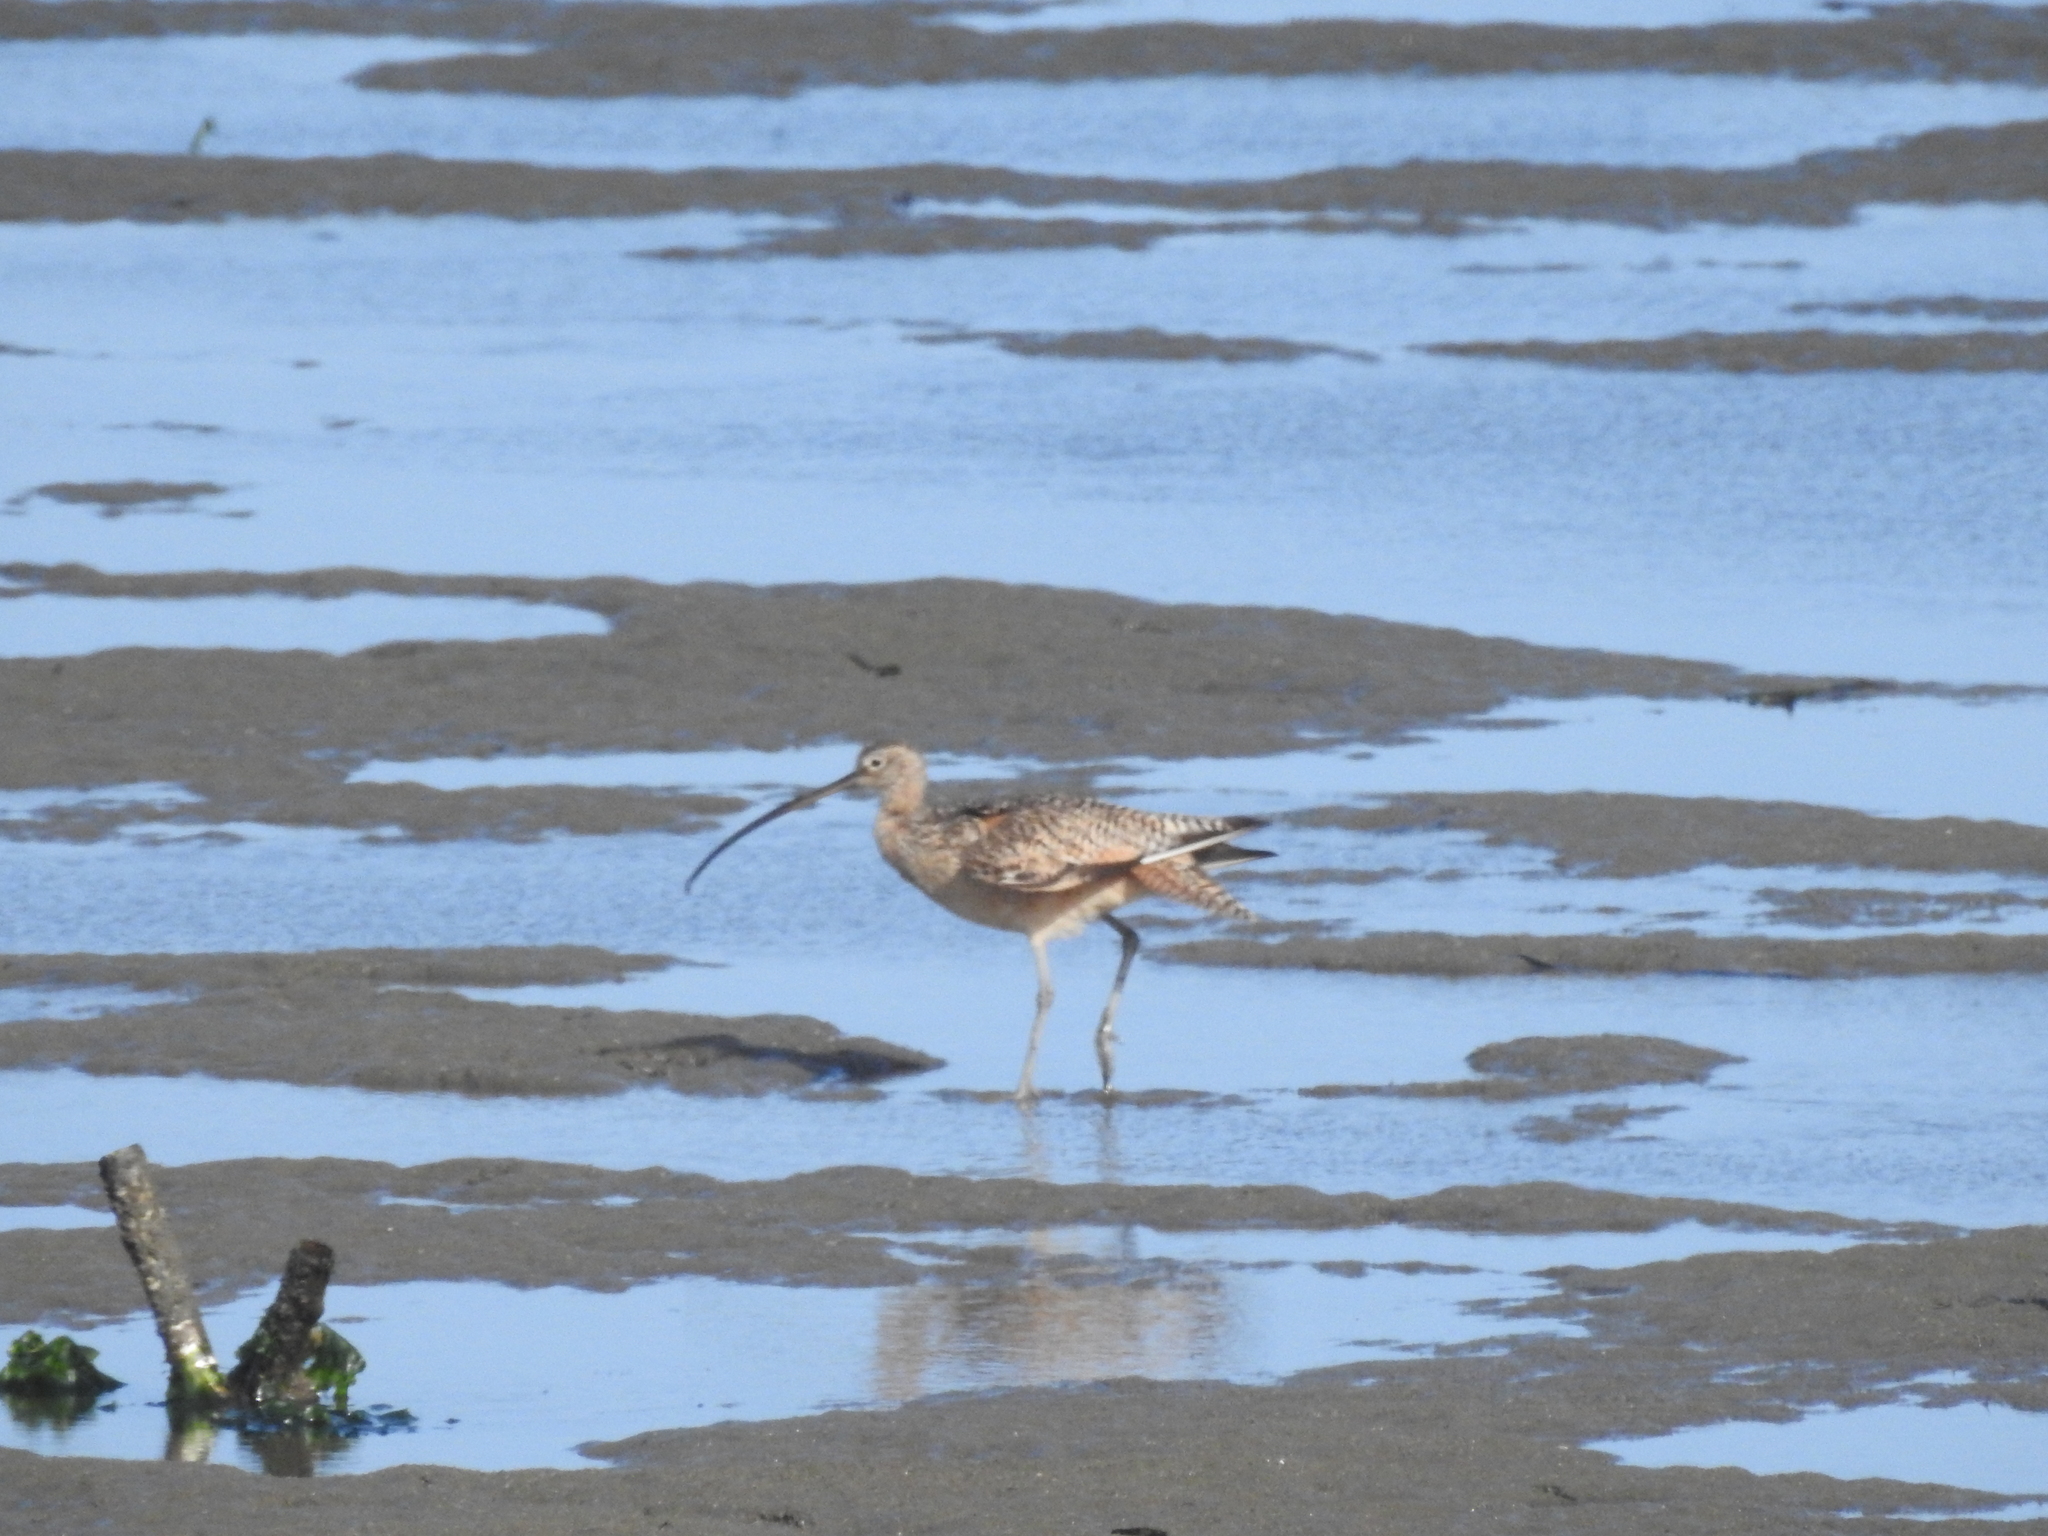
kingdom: Animalia
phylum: Chordata
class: Aves
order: Charadriiformes
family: Scolopacidae
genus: Numenius
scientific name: Numenius americanus
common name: Long-billed curlew
